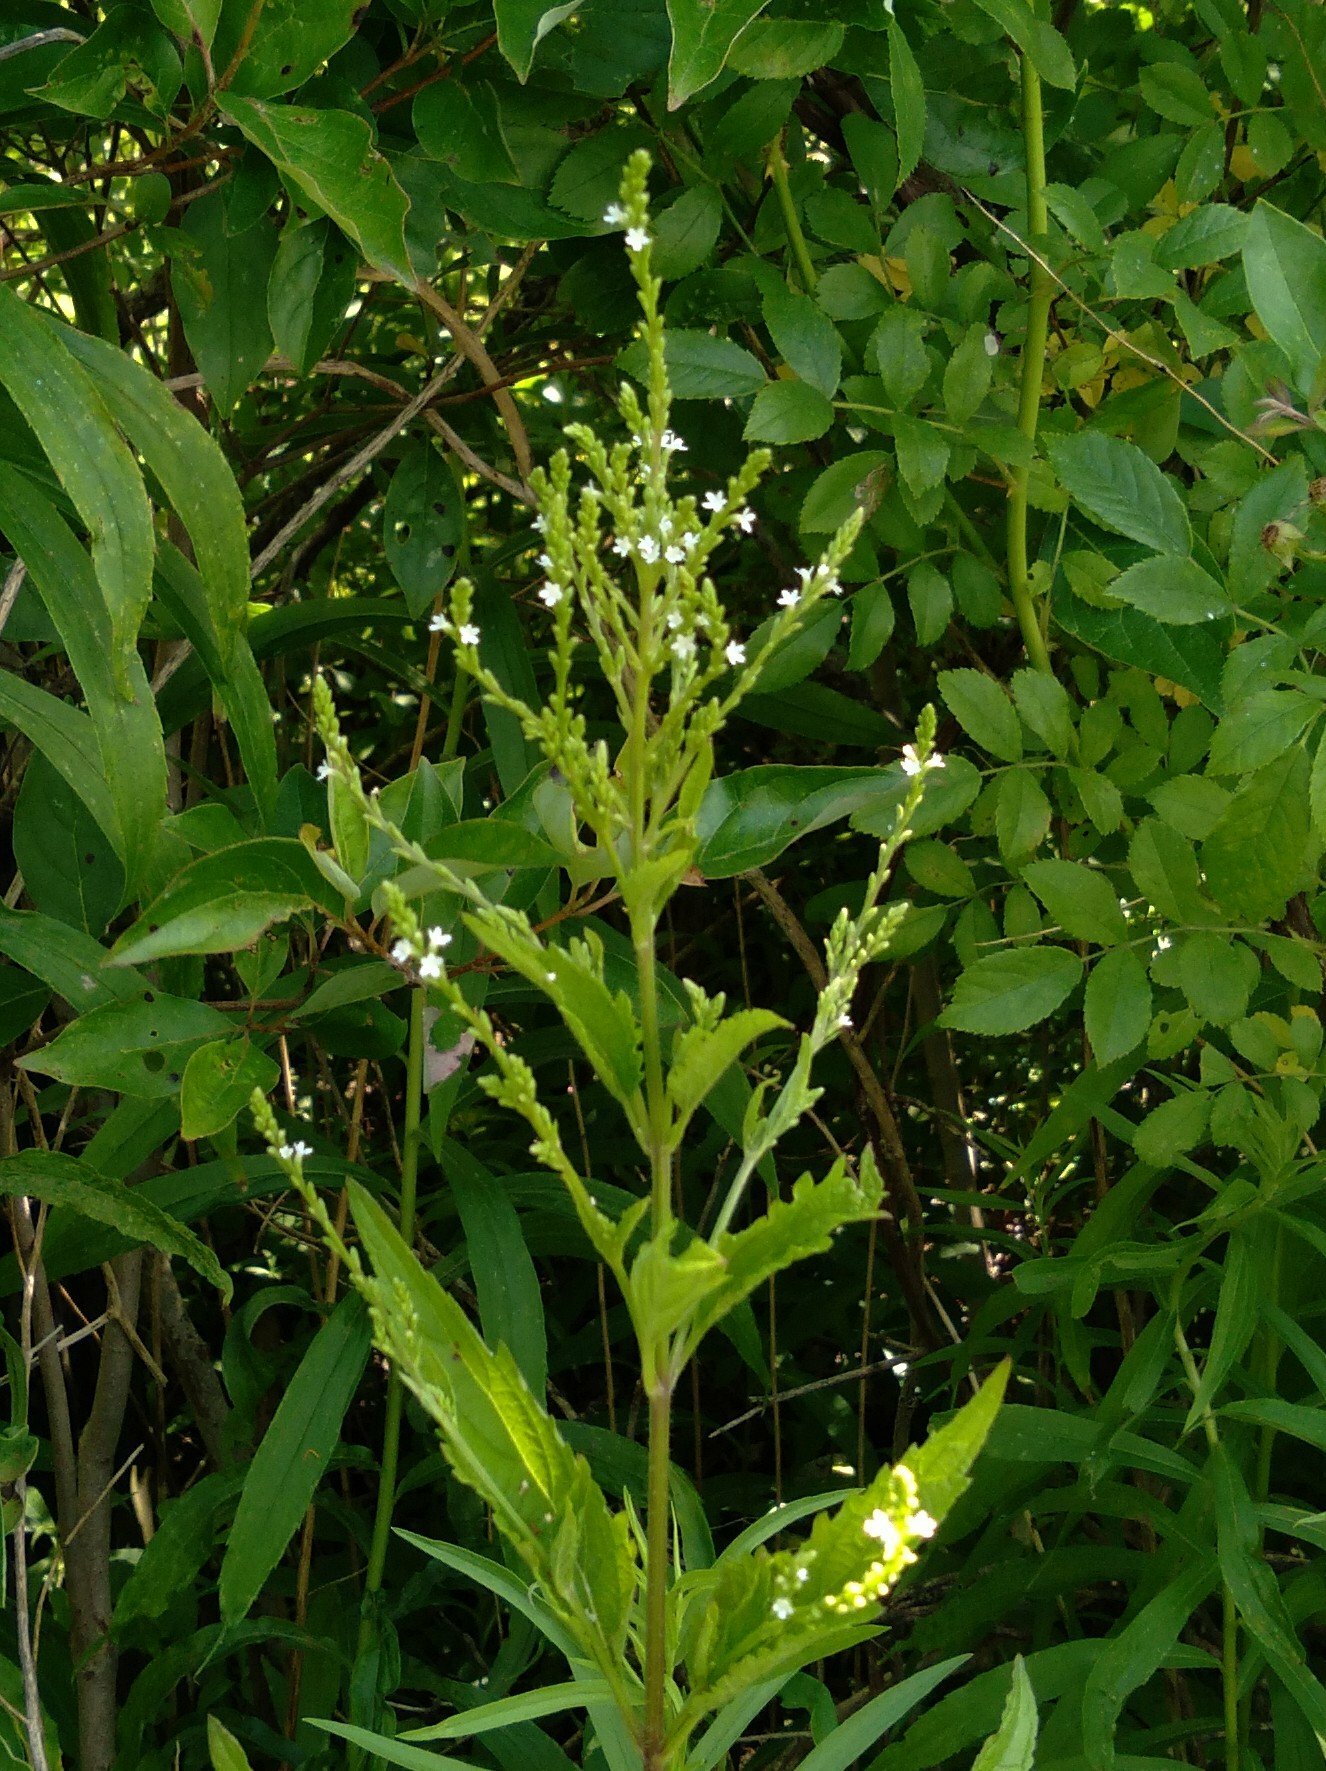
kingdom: Plantae
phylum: Tracheophyta
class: Magnoliopsida
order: Lamiales
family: Verbenaceae
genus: Verbena
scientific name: Verbena urticifolia
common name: Nettle-leaved vervain
